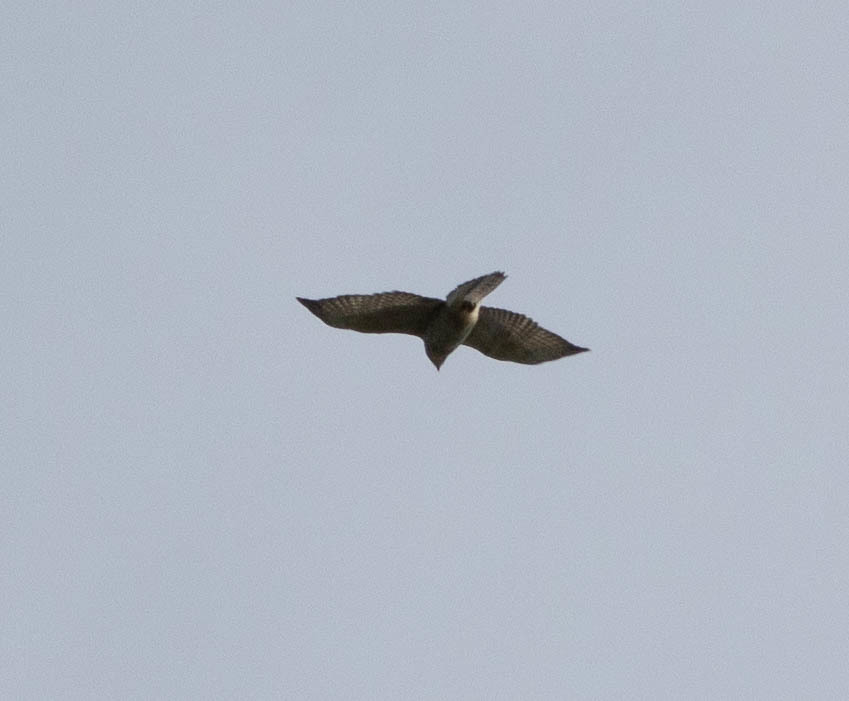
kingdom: Animalia
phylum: Chordata
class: Aves
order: Accipitriformes
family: Accipitridae
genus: Buteo
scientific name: Buteo platypterus
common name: Broad-winged hawk
